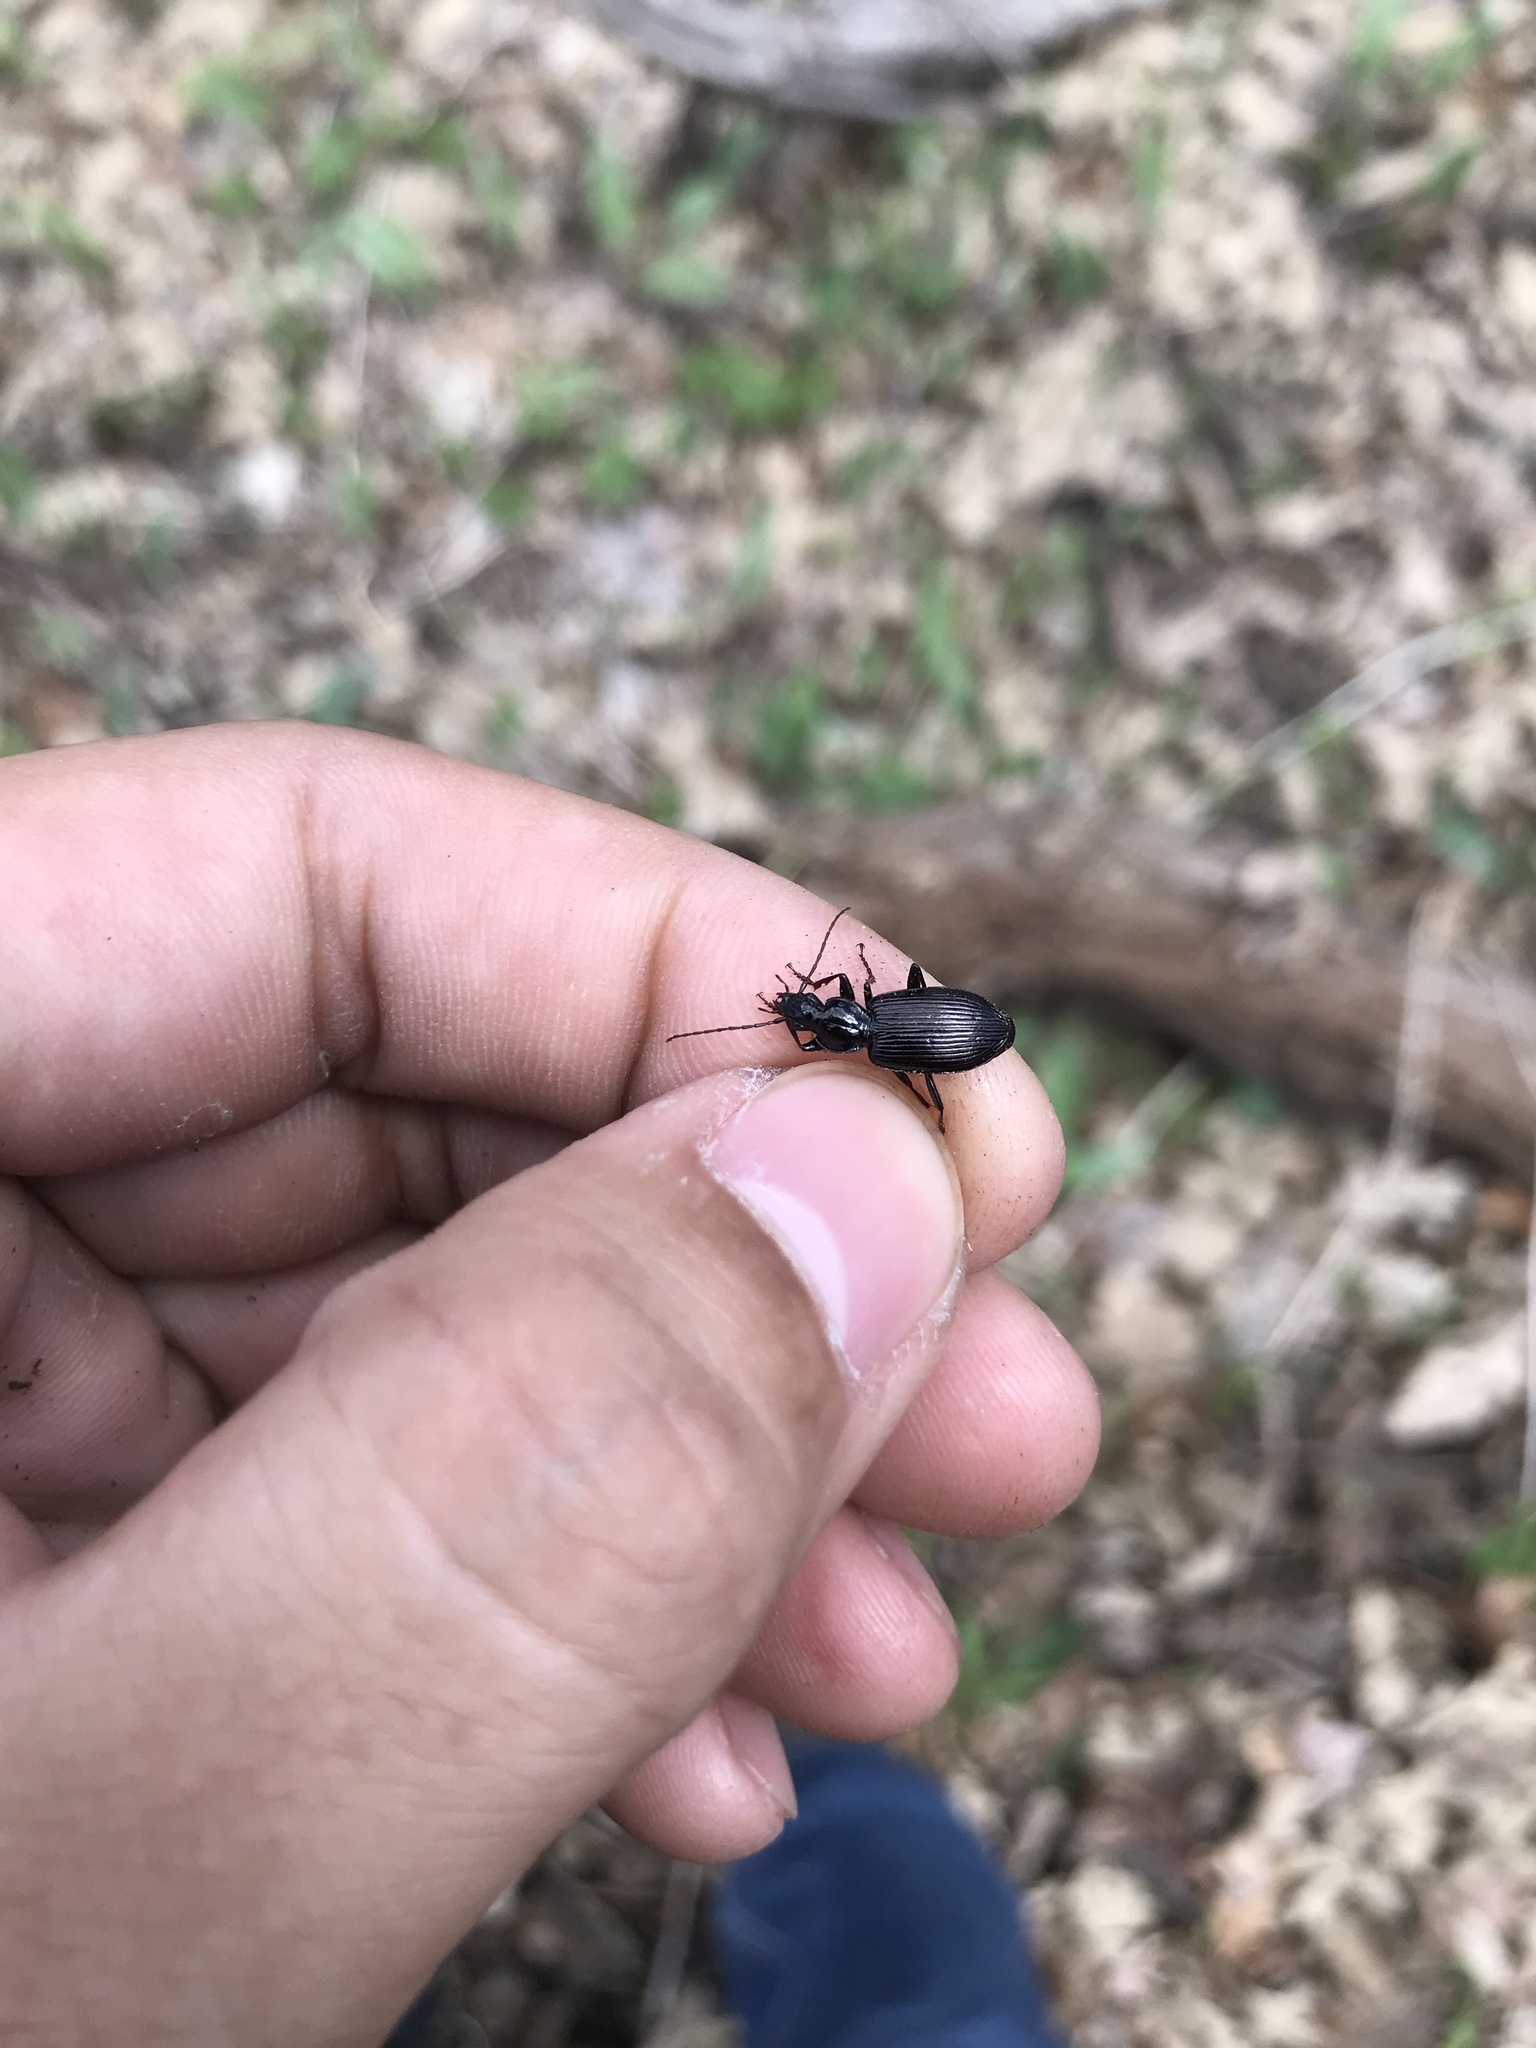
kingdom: Animalia
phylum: Arthropoda
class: Insecta
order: Coleoptera
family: Carabidae
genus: Platynus
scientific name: Platynus decentis
